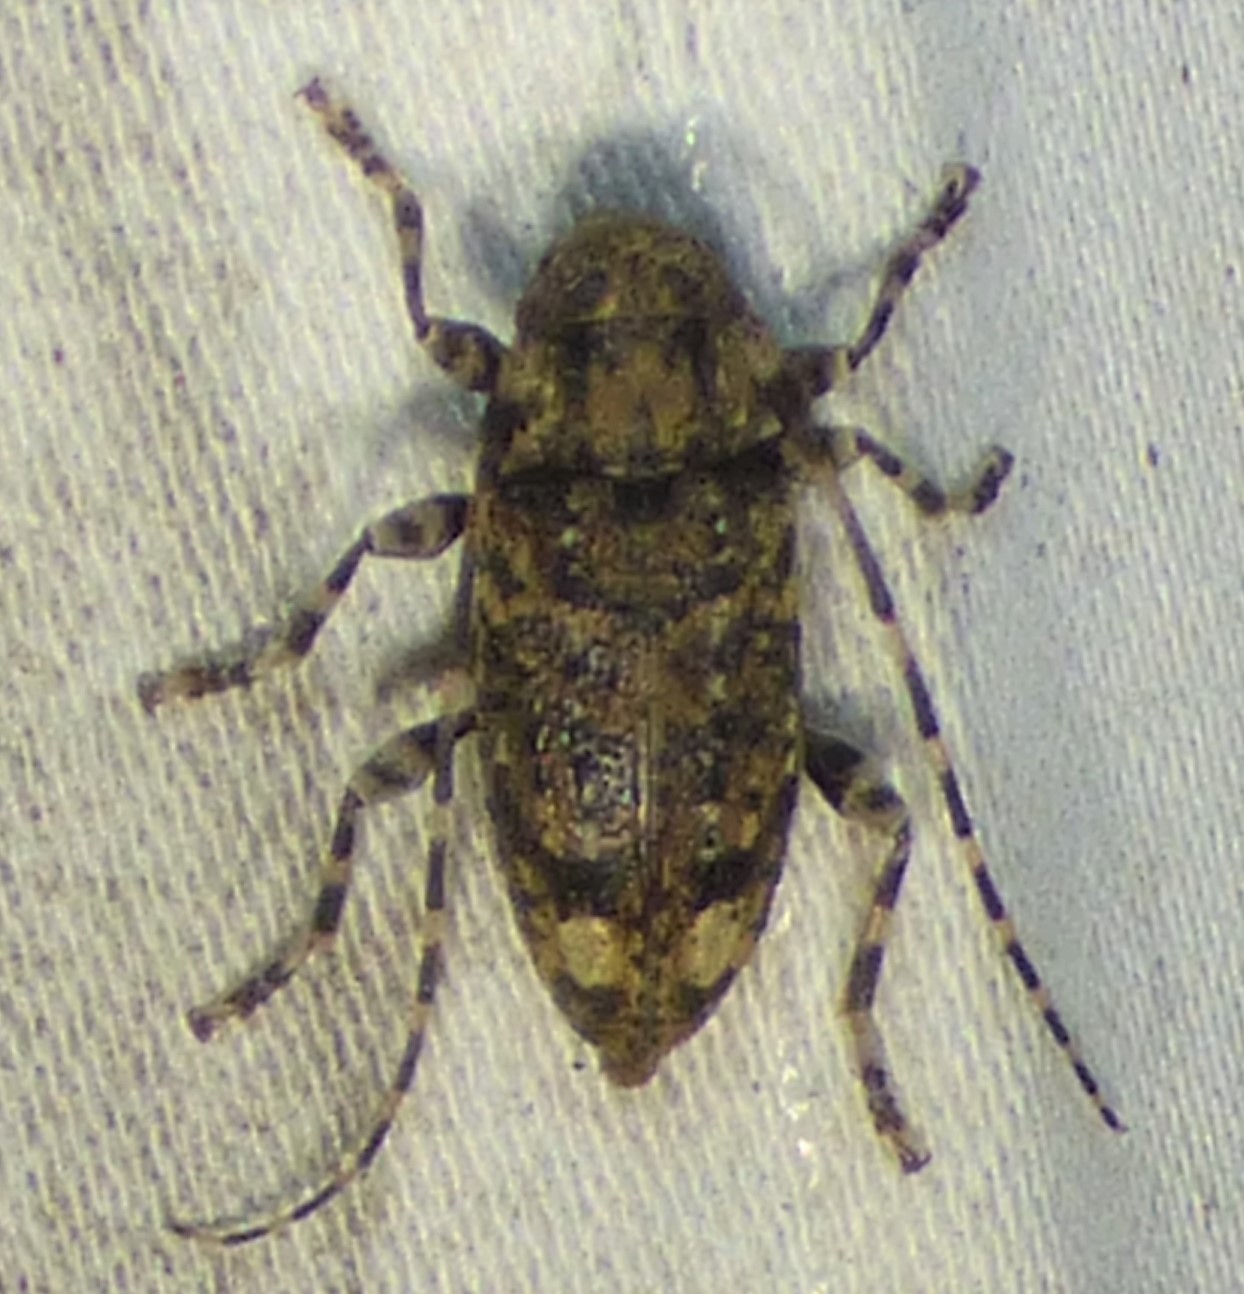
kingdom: Animalia
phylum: Arthropoda
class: Insecta
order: Coleoptera
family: Cerambycidae
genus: Astyleiopus
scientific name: Astyleiopus variegatus
